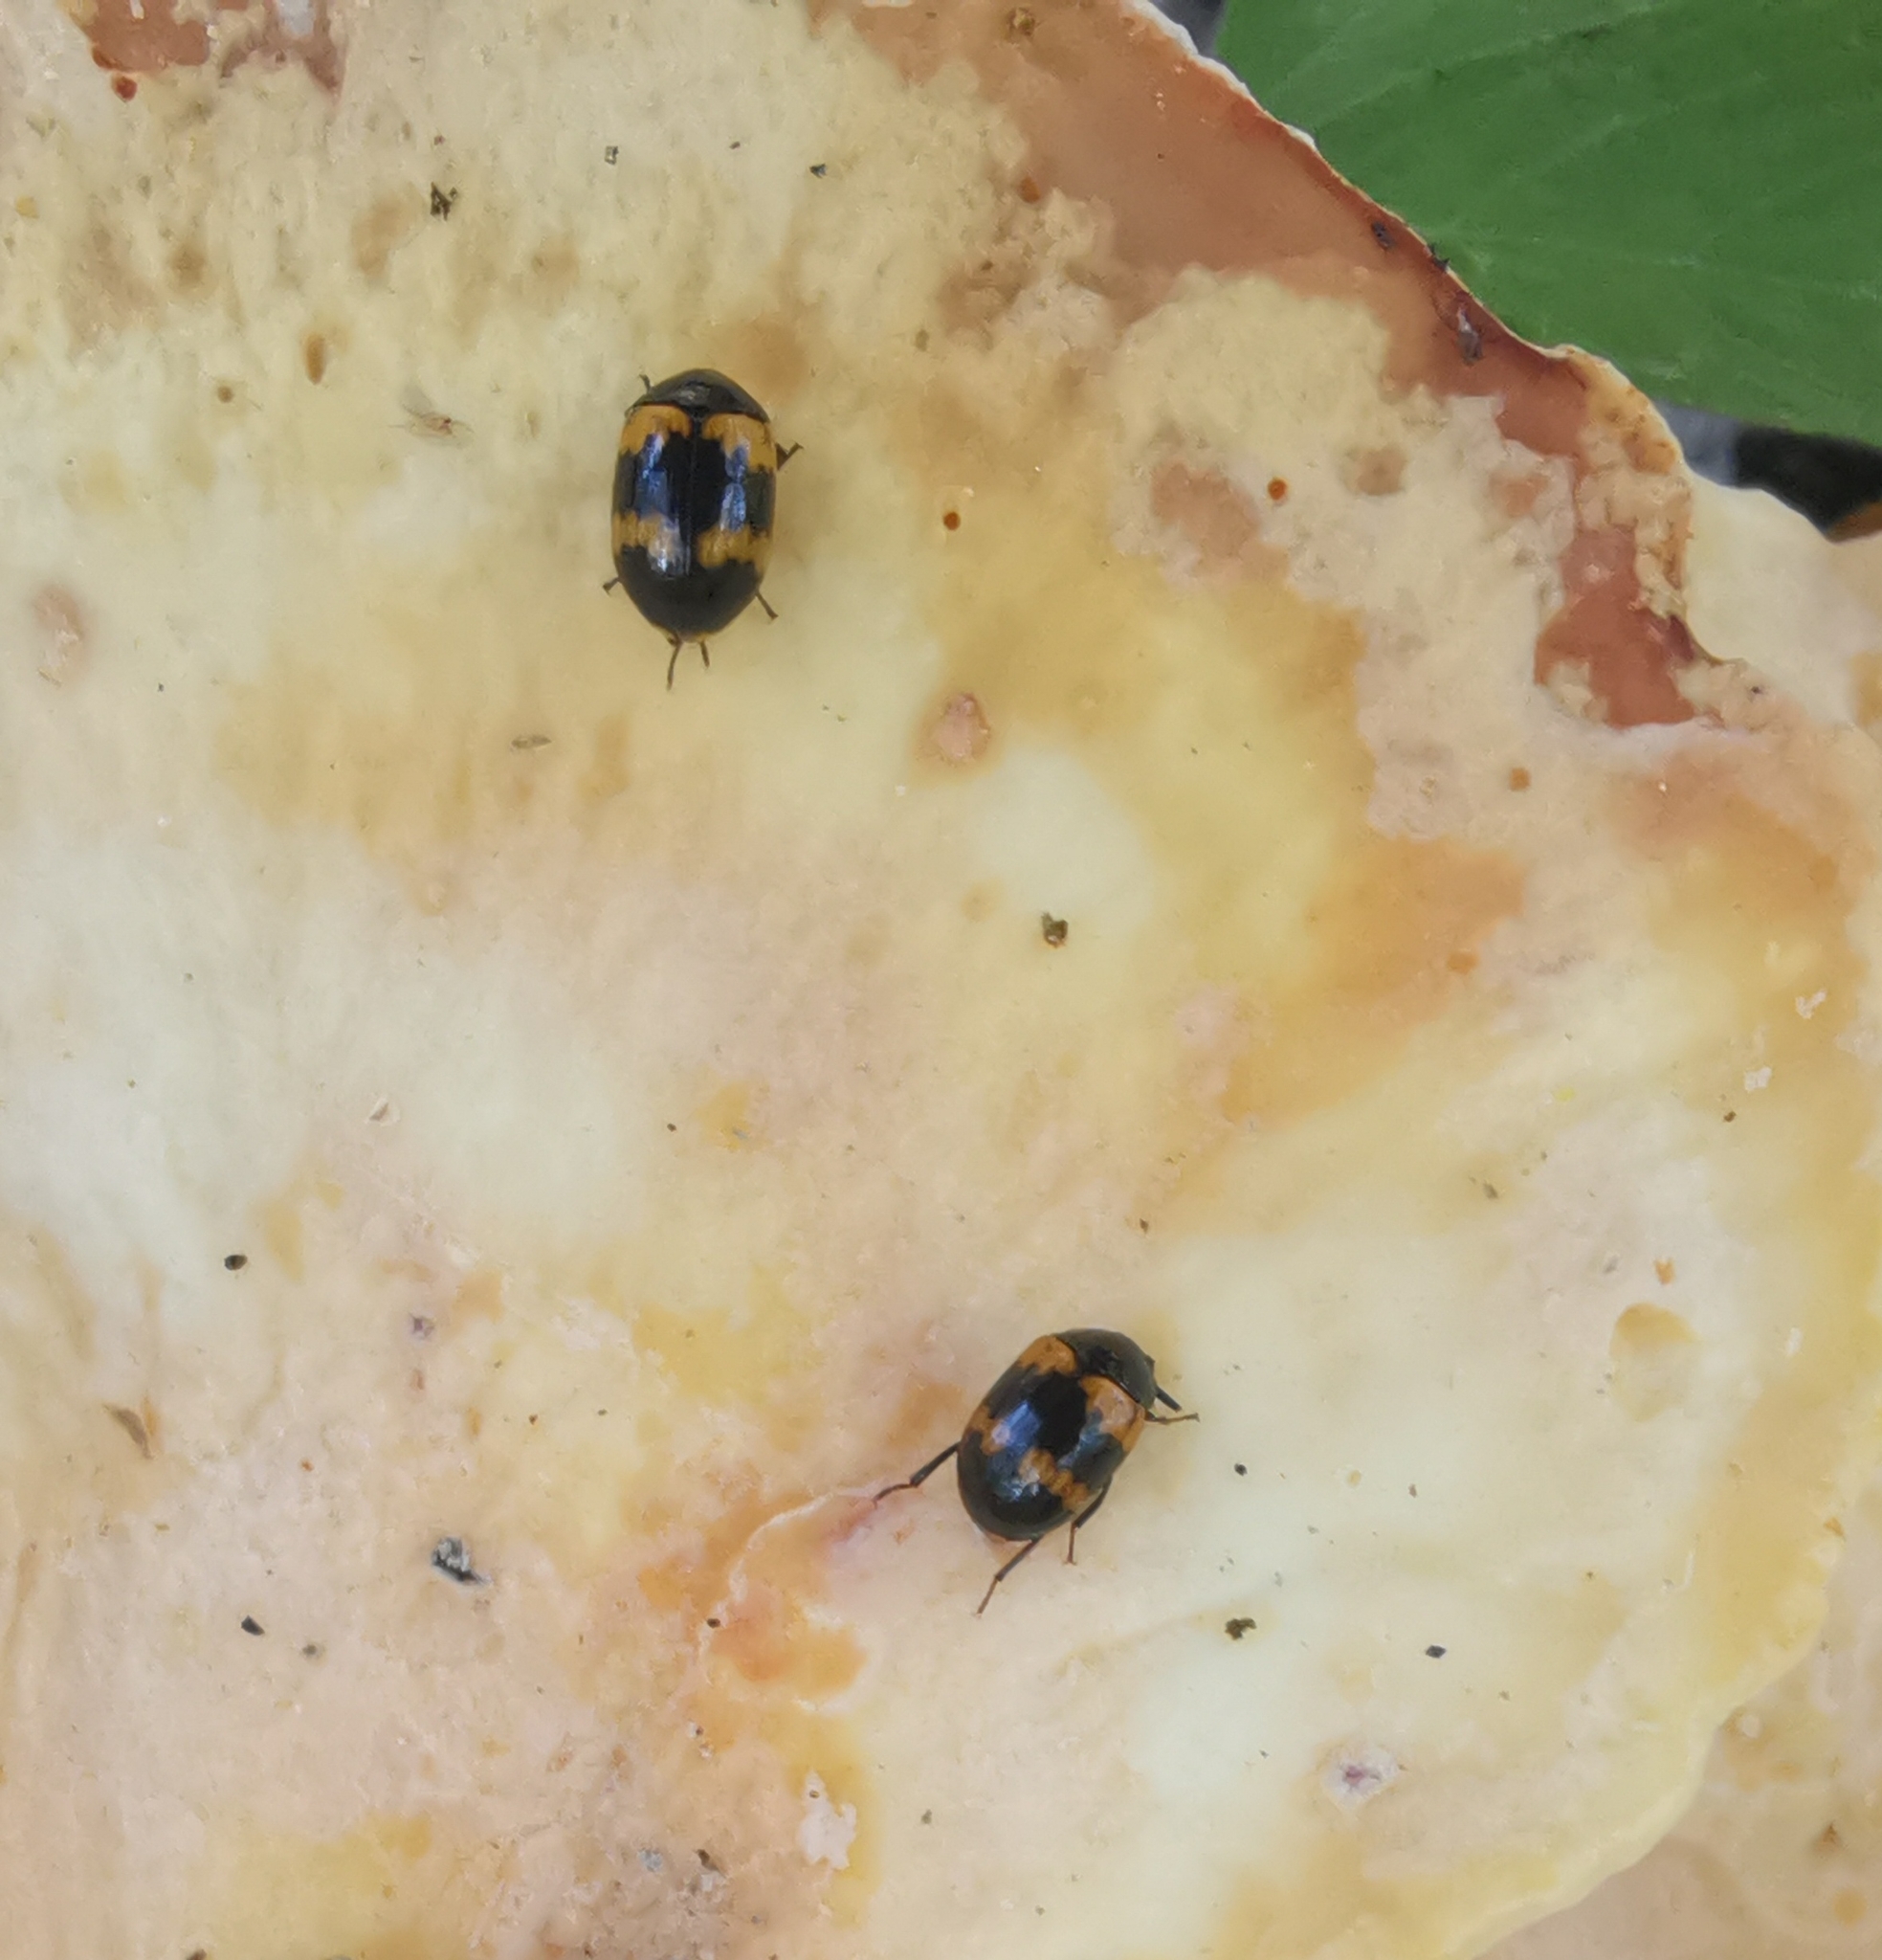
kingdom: Animalia
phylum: Arthropoda
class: Insecta
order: Coleoptera
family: Tenebrionidae
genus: Diaperis
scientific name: Diaperis boleti
